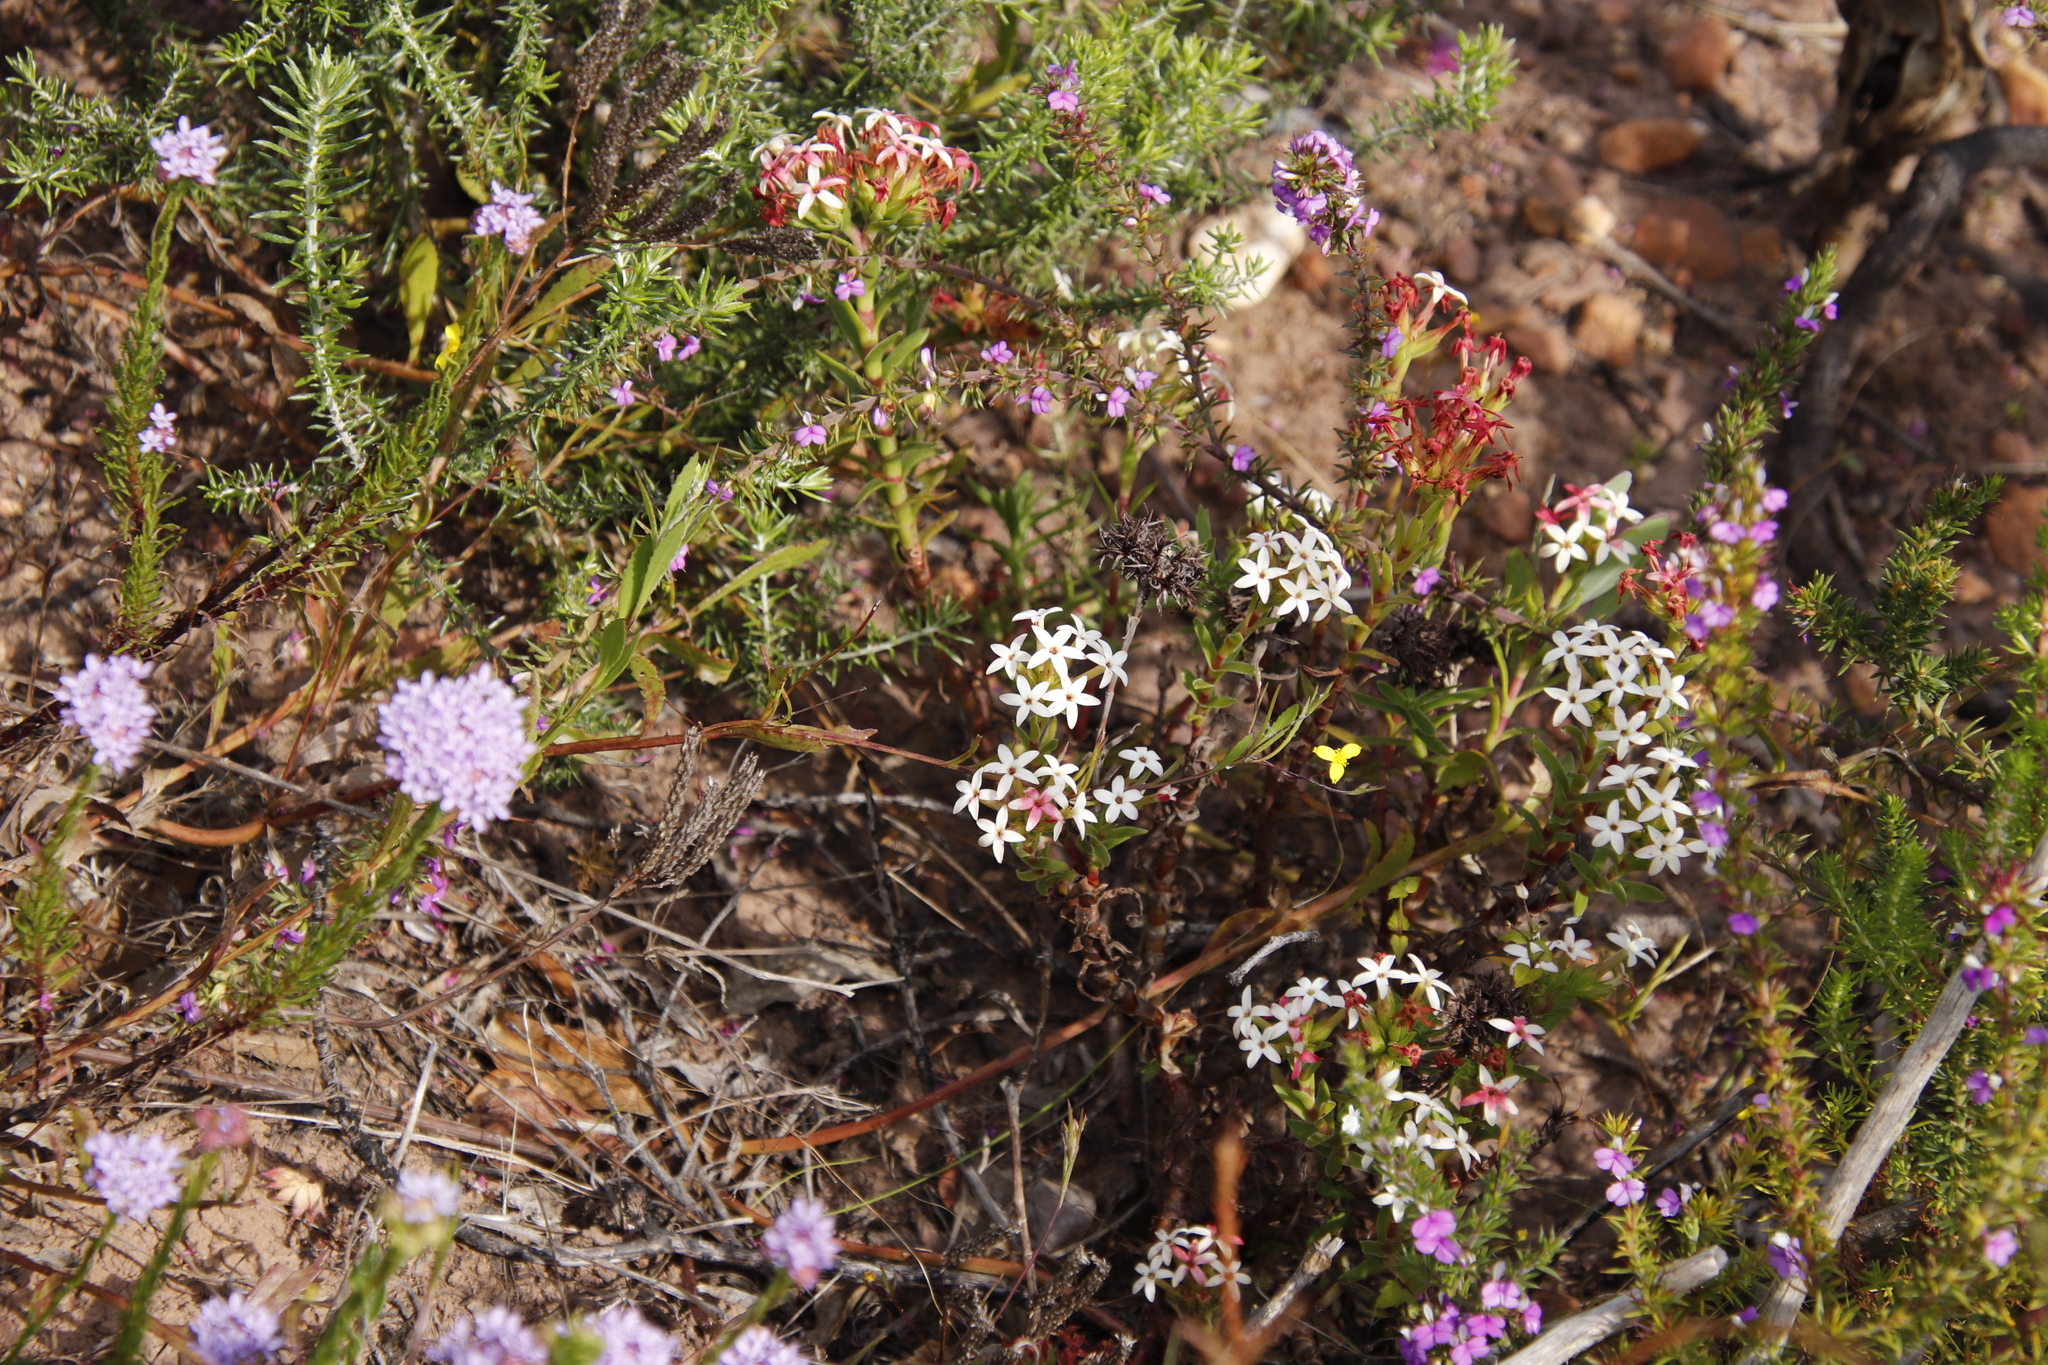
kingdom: Plantae
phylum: Tracheophyta
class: Magnoliopsida
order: Saxifragales
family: Crassulaceae
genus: Crassula
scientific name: Crassula fascicularis
